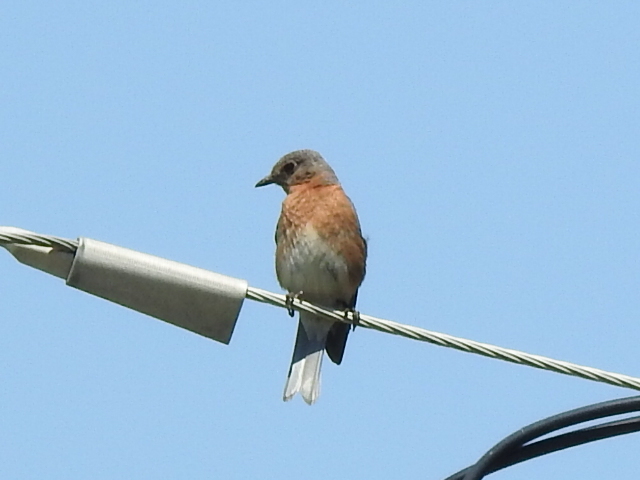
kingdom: Animalia
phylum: Chordata
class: Aves
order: Passeriformes
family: Turdidae
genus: Sialia
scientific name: Sialia sialis
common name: Eastern bluebird
